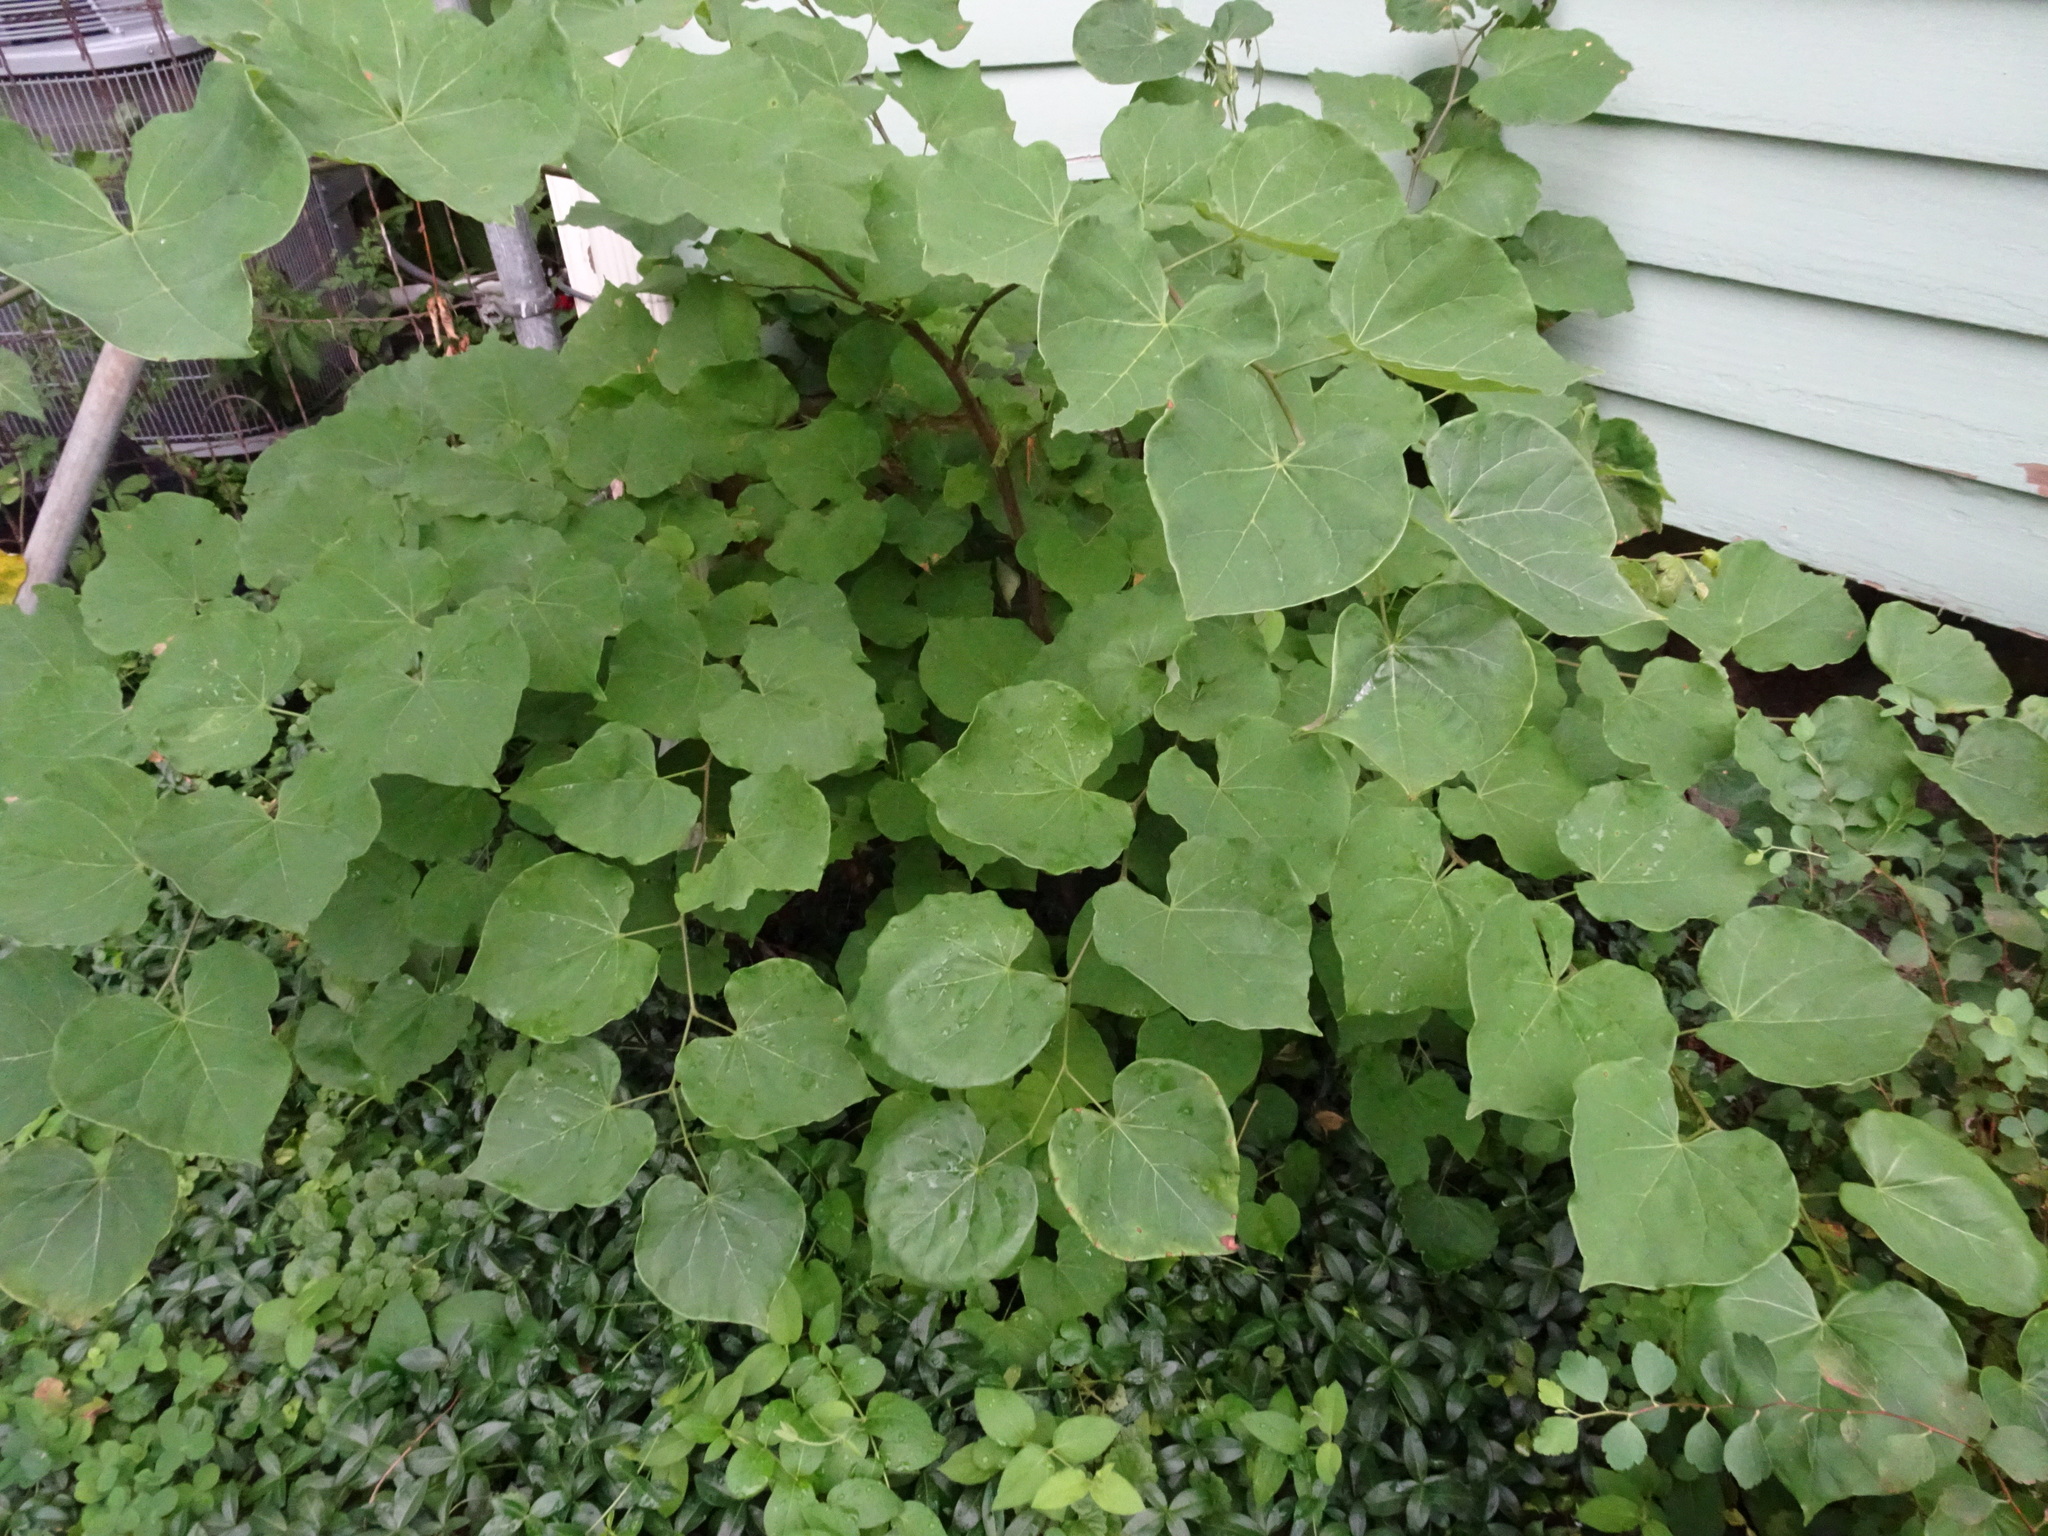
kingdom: Plantae
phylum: Tracheophyta
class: Magnoliopsida
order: Fabales
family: Fabaceae
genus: Cercis
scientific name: Cercis canadensis
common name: Eastern redbud
